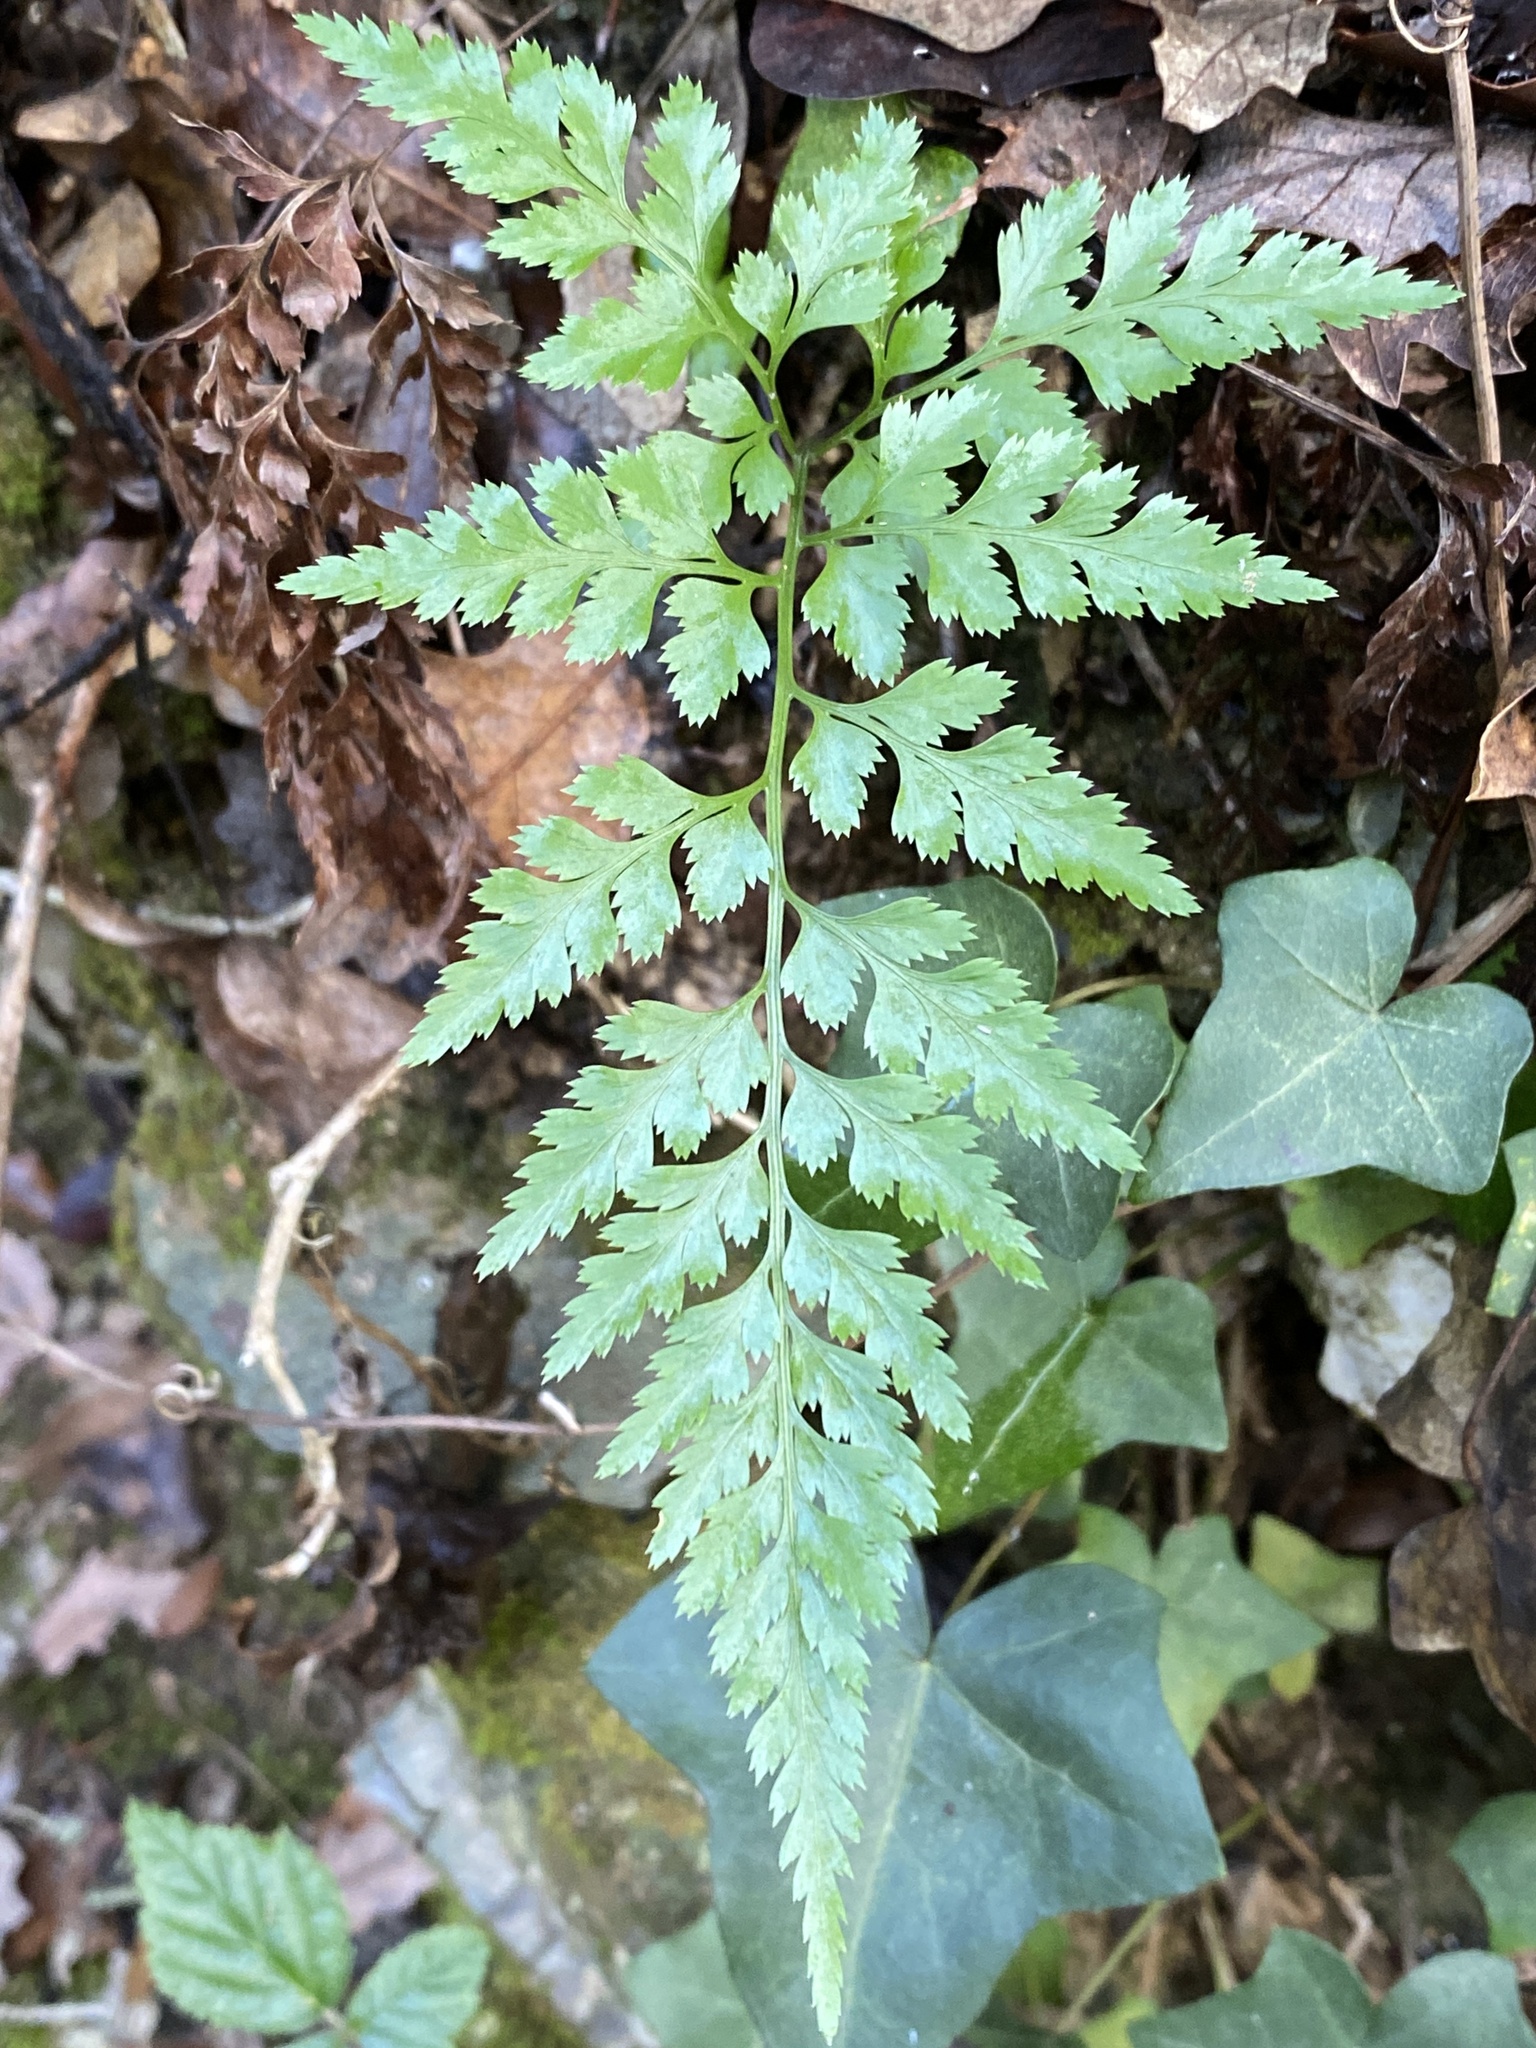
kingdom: Plantae
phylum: Tracheophyta
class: Polypodiopsida
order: Polypodiales
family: Aspleniaceae
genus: Asplenium
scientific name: Asplenium onopteris
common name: Irish spleenwort
